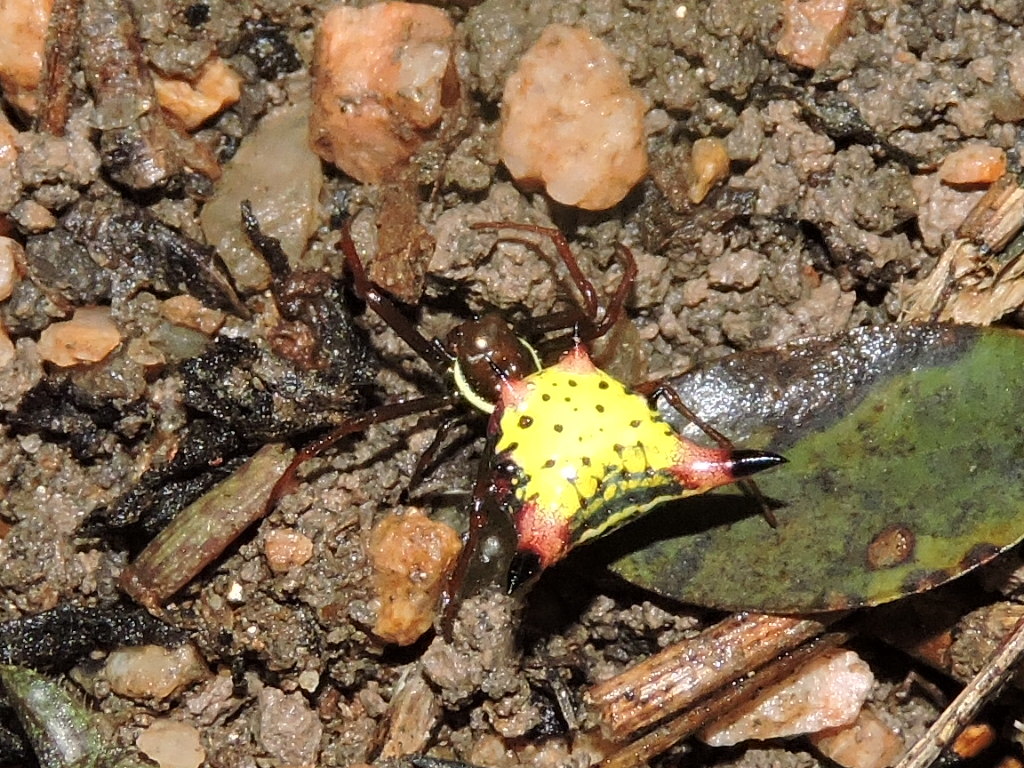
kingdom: Animalia
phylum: Arthropoda
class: Arachnida
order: Araneae
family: Araneidae
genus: Micrathena
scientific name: Micrathena sagittata
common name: Orb weavers
